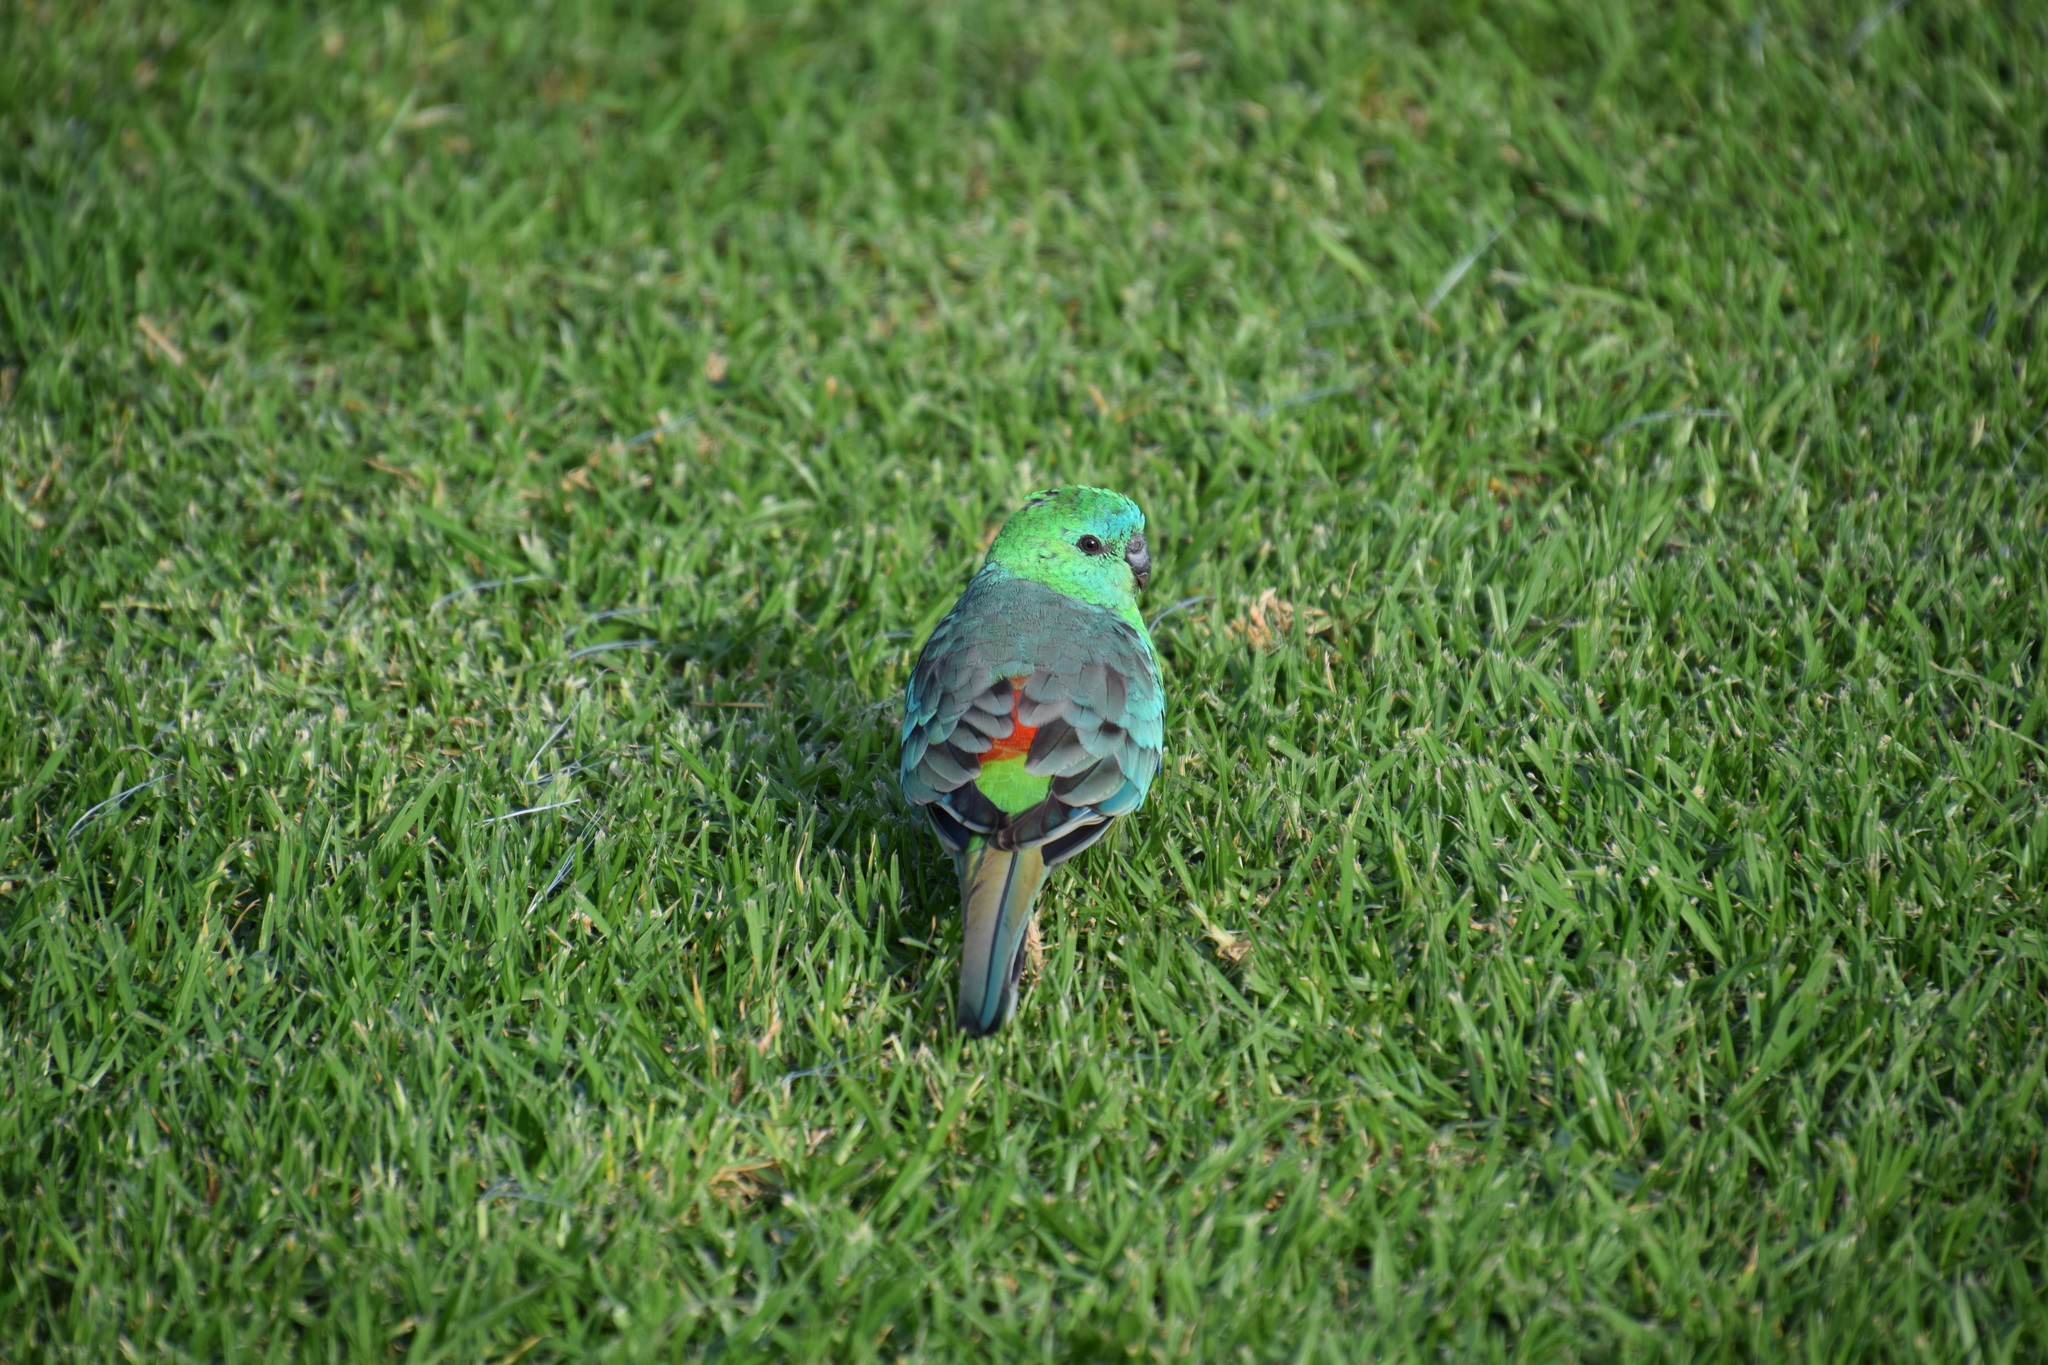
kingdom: Animalia
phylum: Chordata
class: Aves
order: Psittaciformes
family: Psittacidae
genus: Psephotus
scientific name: Psephotus haematonotus
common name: Red-rumped parrot
